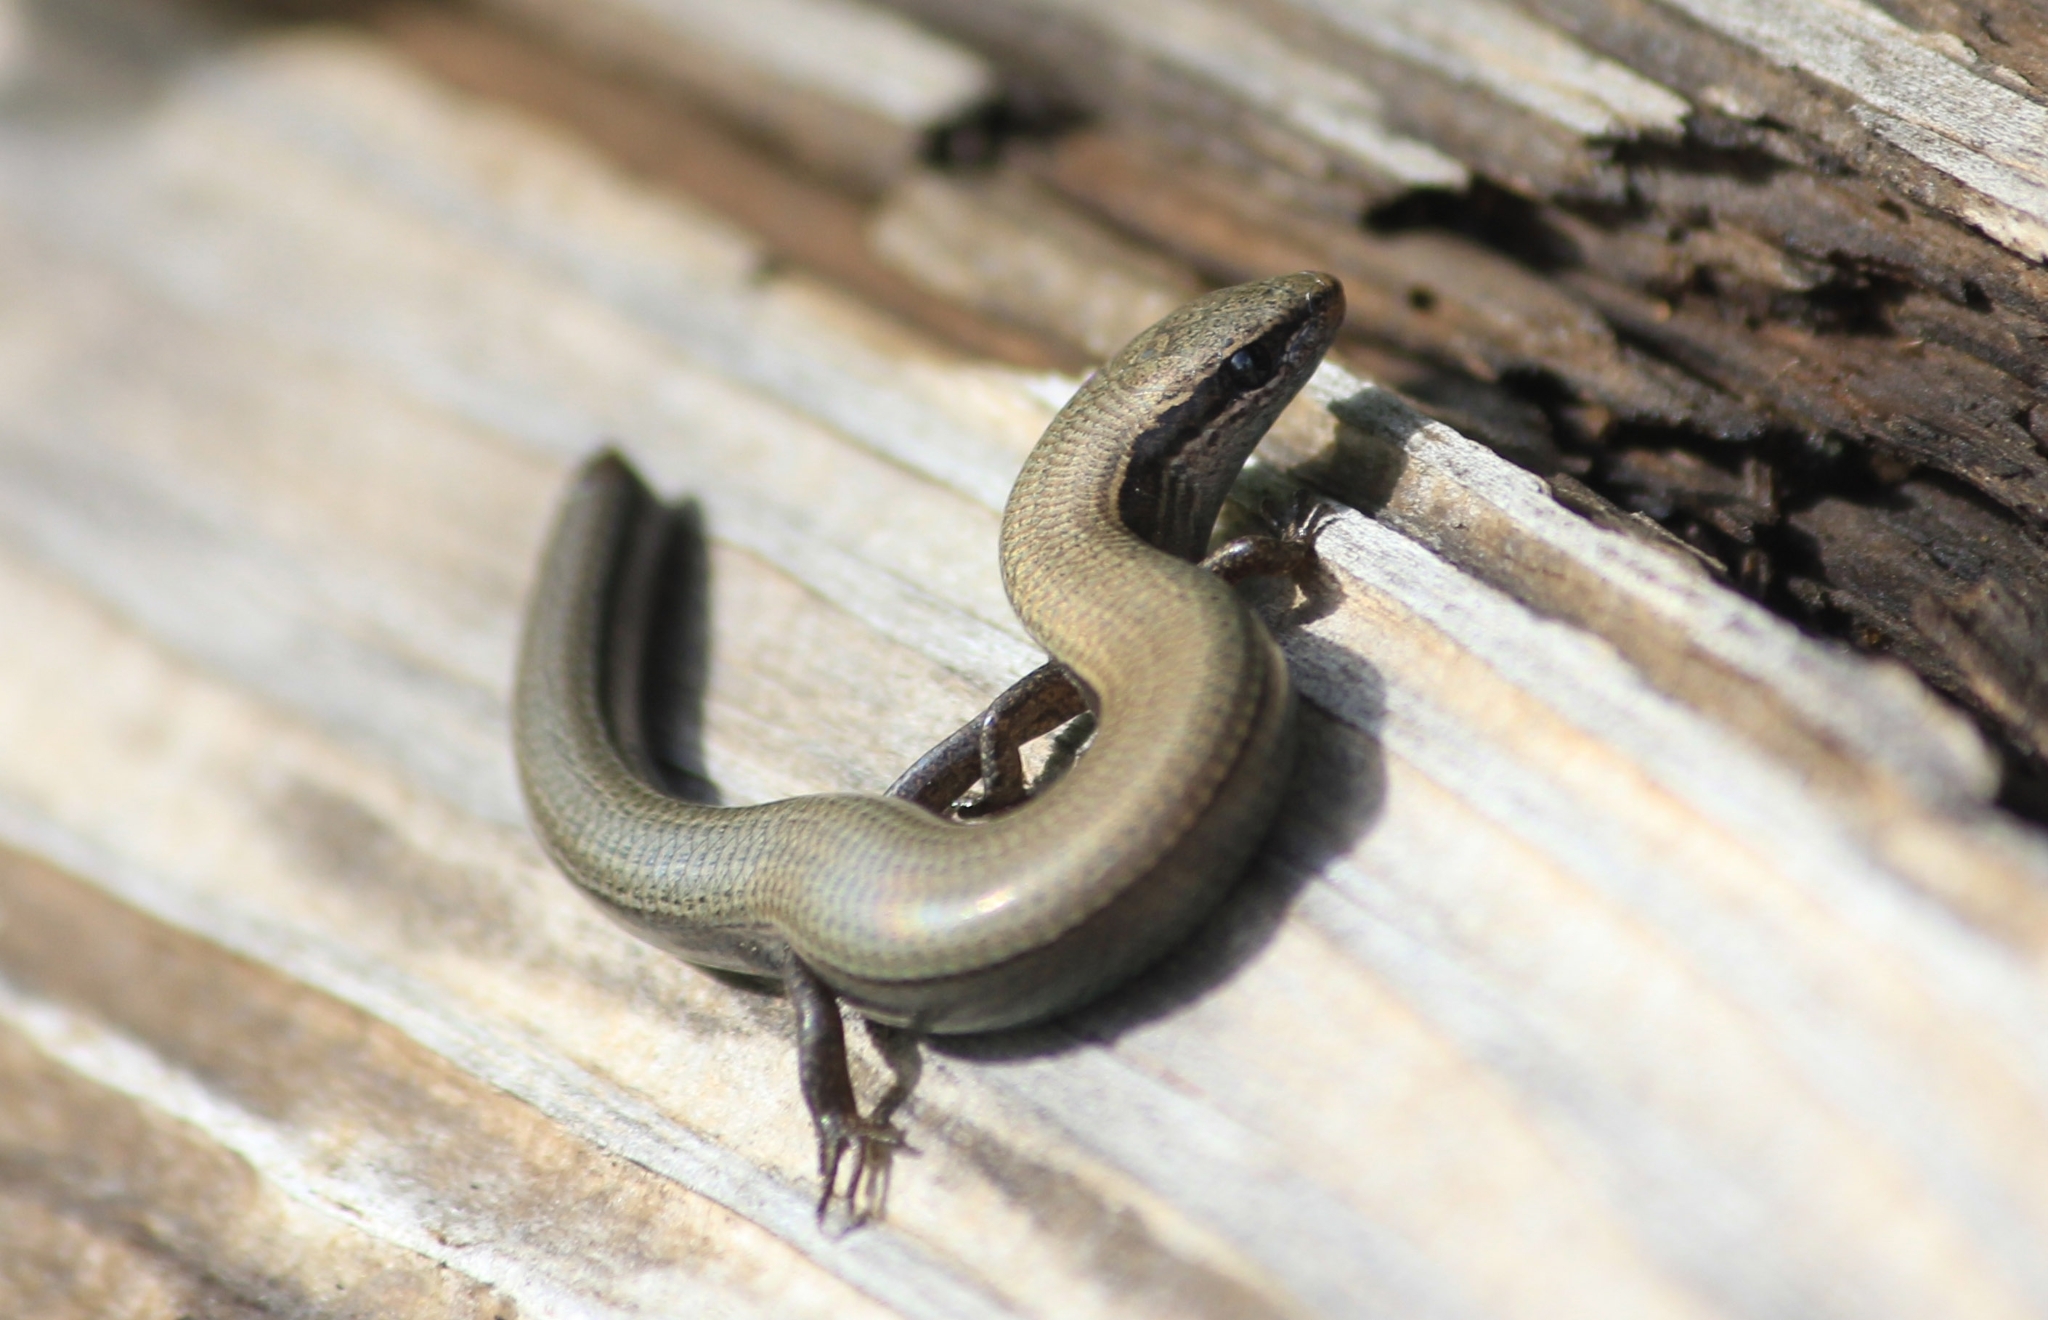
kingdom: Animalia
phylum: Chordata
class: Squamata
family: Scincidae
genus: Ablepharus
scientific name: Ablepharus kitaibelii
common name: Juniper skink
